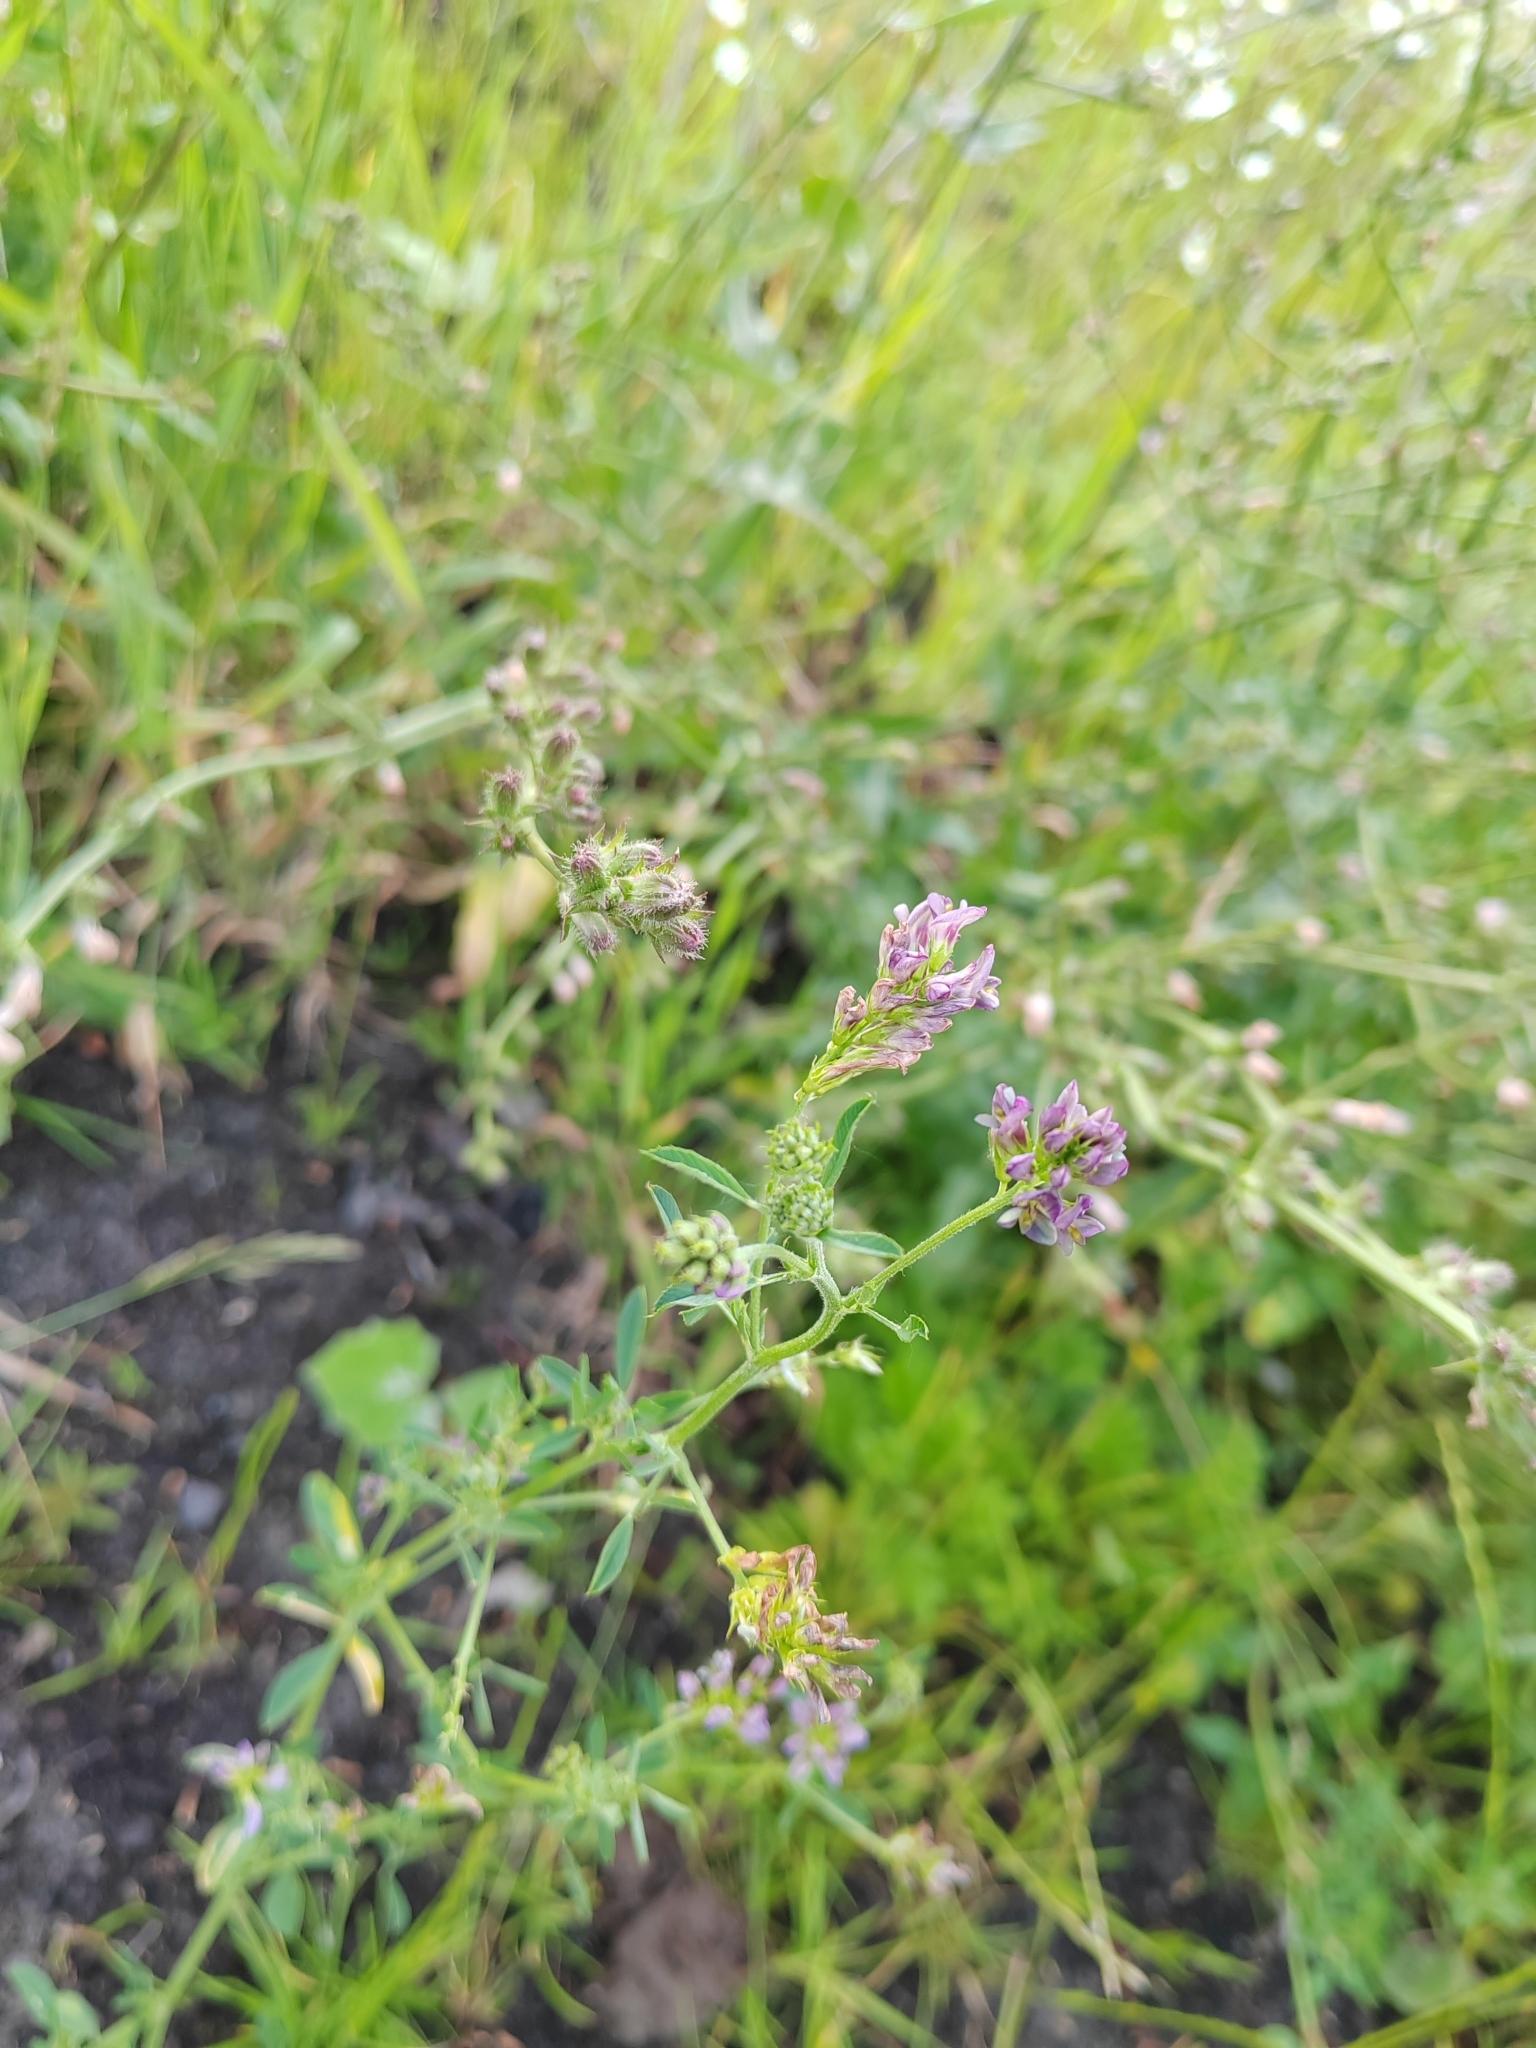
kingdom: Plantae
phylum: Tracheophyta
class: Magnoliopsida
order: Fabales
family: Fabaceae
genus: Medicago
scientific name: Medicago varia
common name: Sand lucerne
